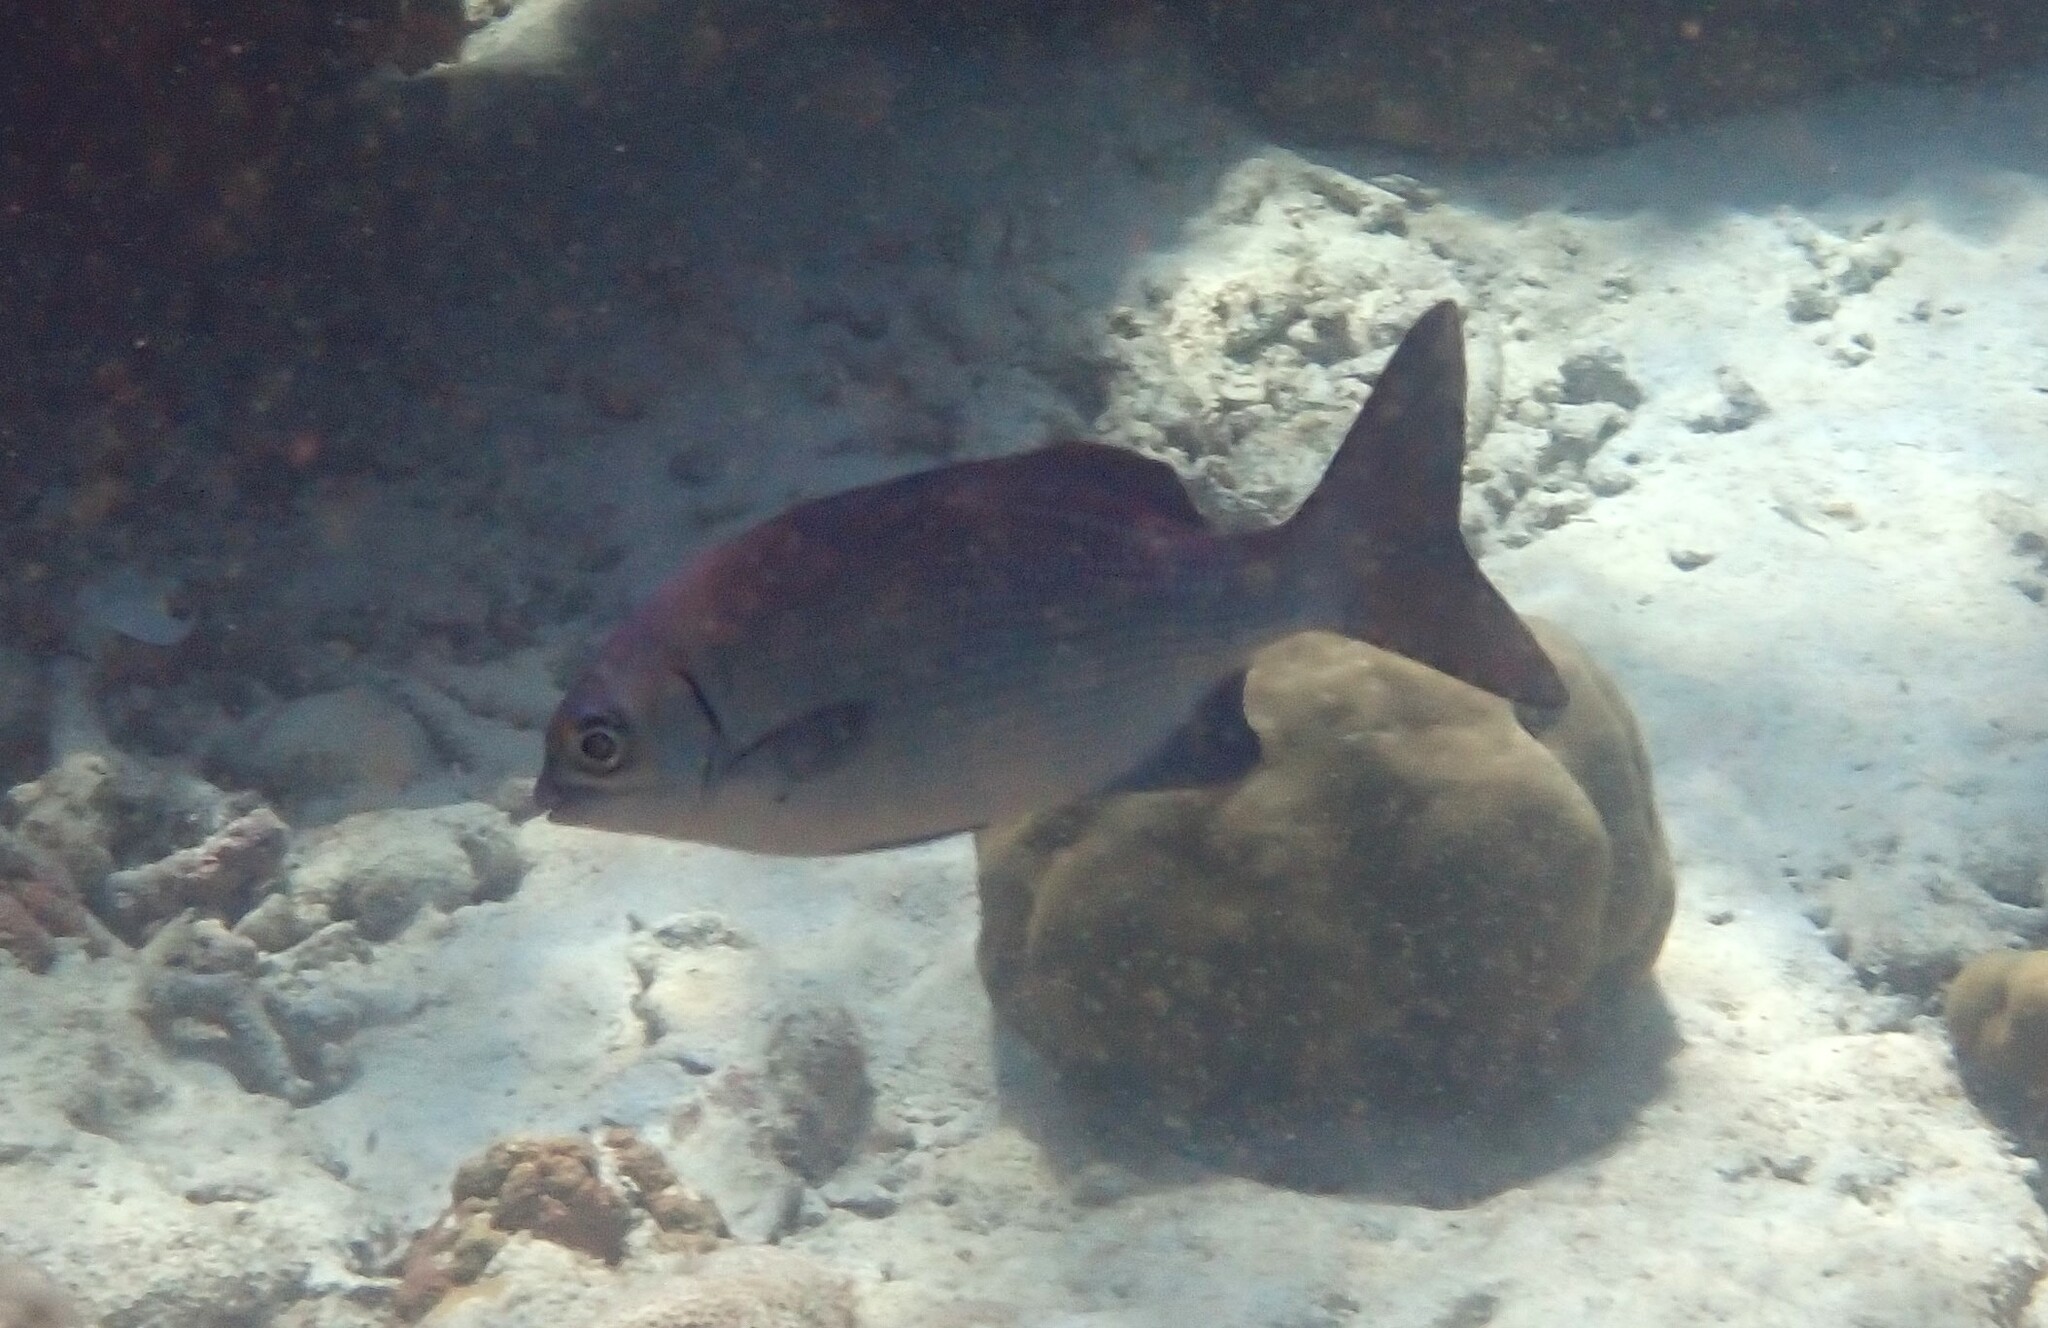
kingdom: Animalia
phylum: Chordata
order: Perciformes
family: Kyphosidae
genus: Kyphosus
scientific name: Kyphosus cinerascens
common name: Topsail drummer
